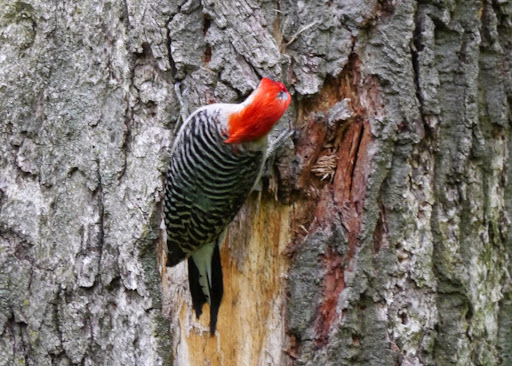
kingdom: Animalia
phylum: Chordata
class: Aves
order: Piciformes
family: Picidae
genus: Melanerpes
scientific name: Melanerpes carolinus
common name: Red-bellied woodpecker
